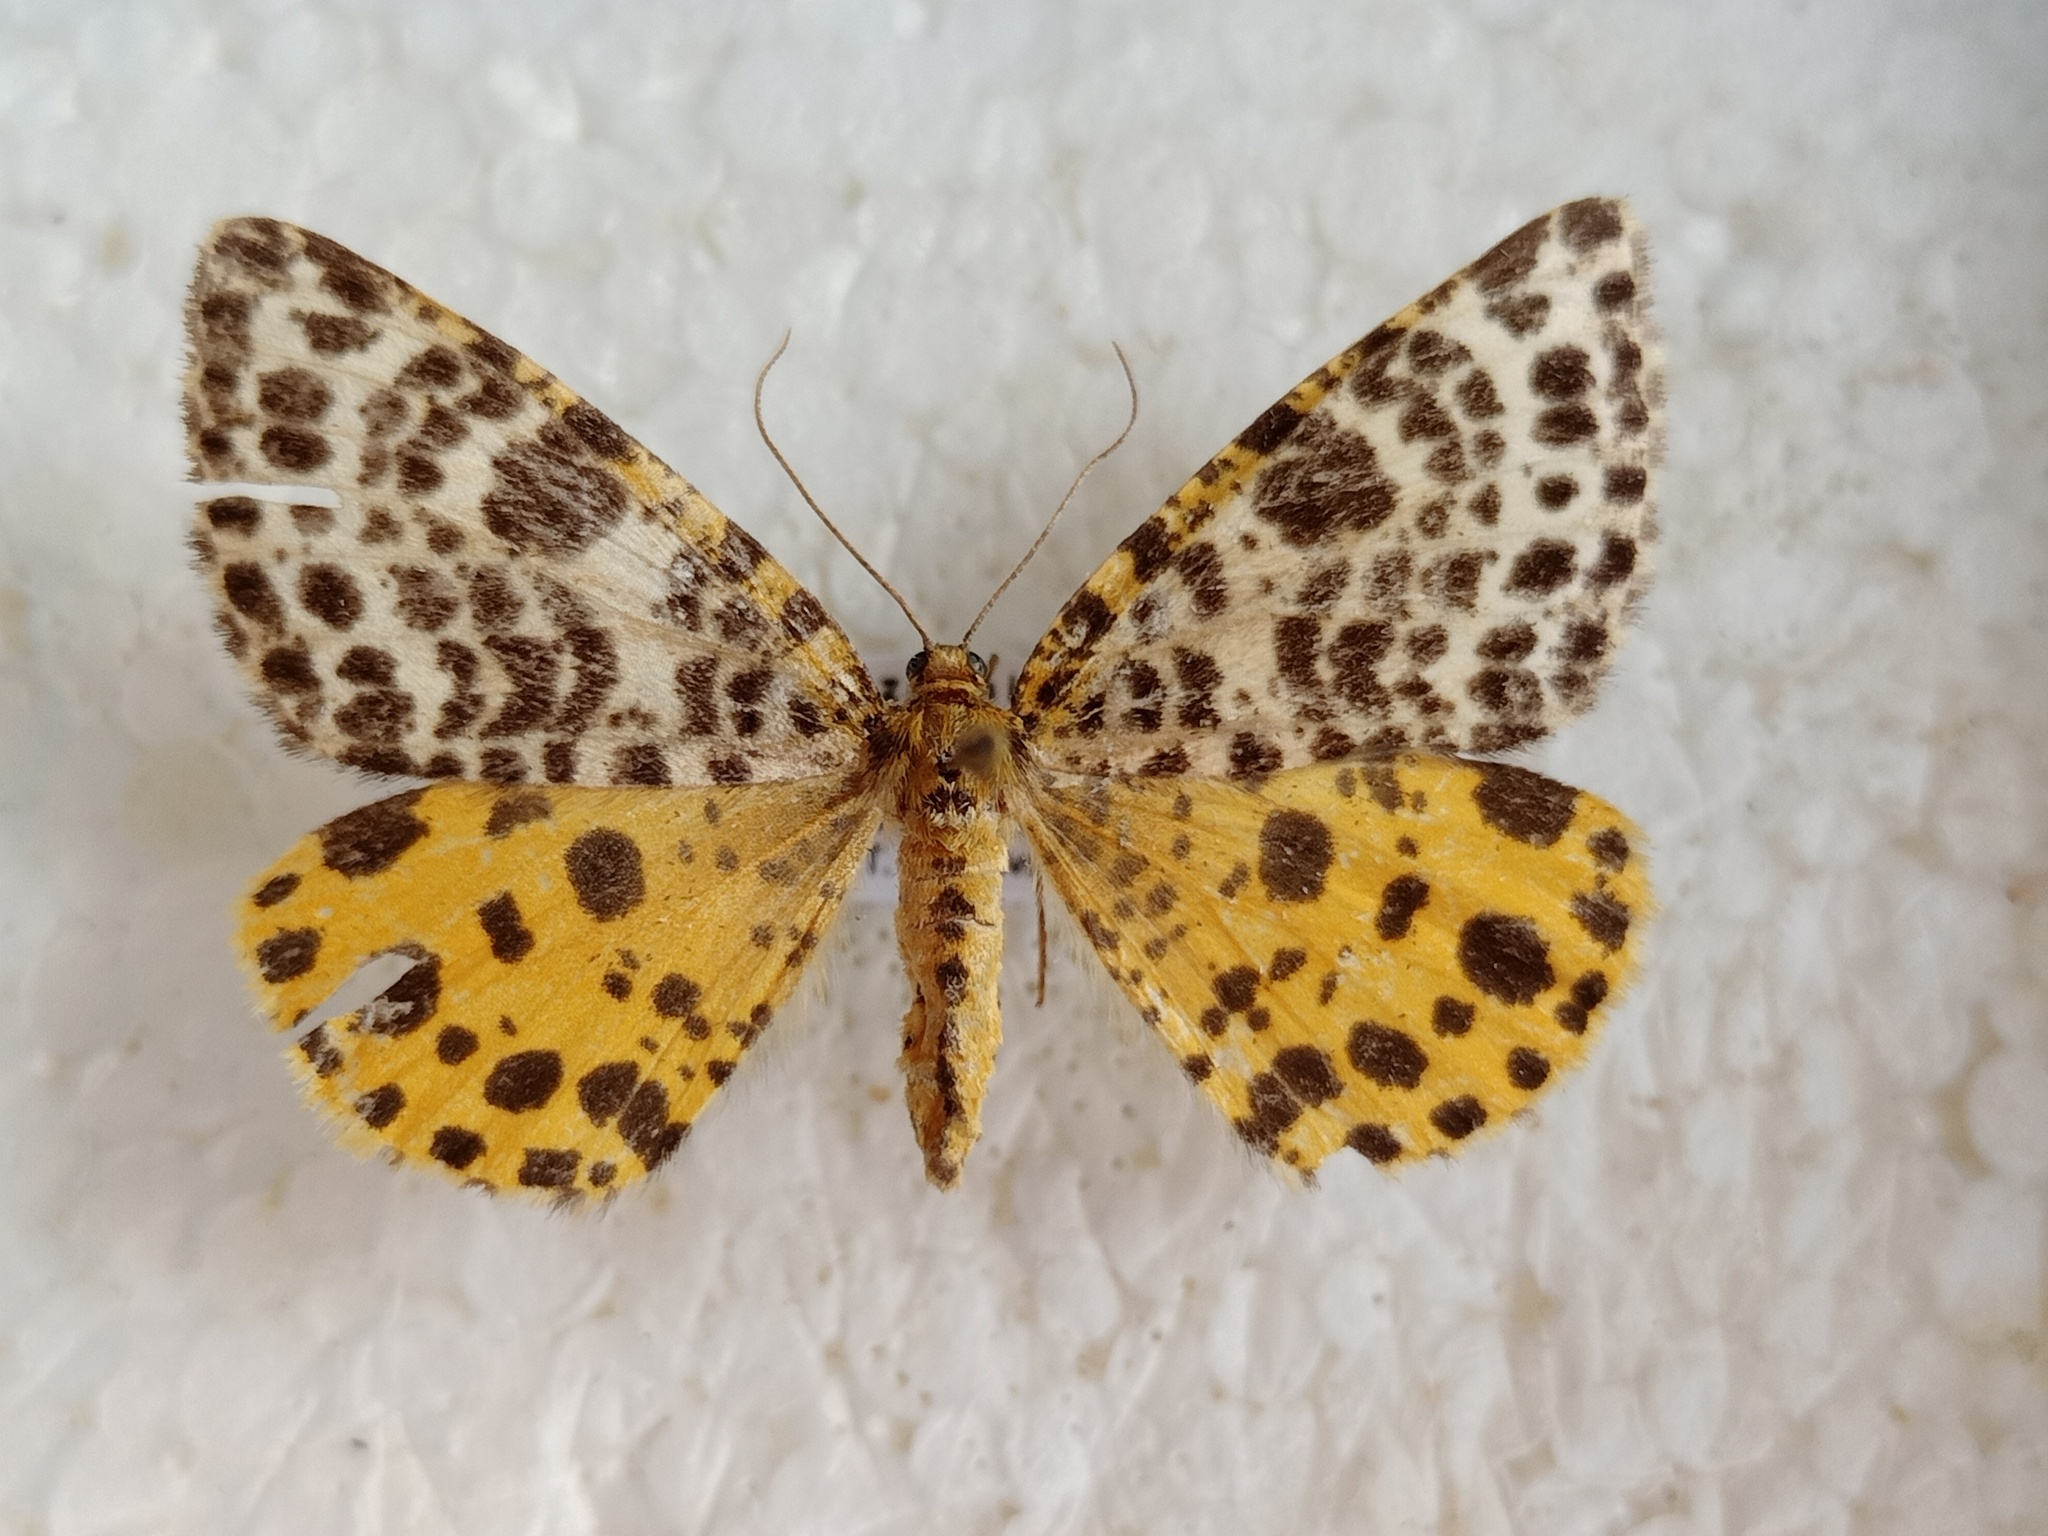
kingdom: Animalia
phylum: Arthropoda
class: Insecta
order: Lepidoptera
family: Geometridae
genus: Arichanna
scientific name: Arichanna melanaria
